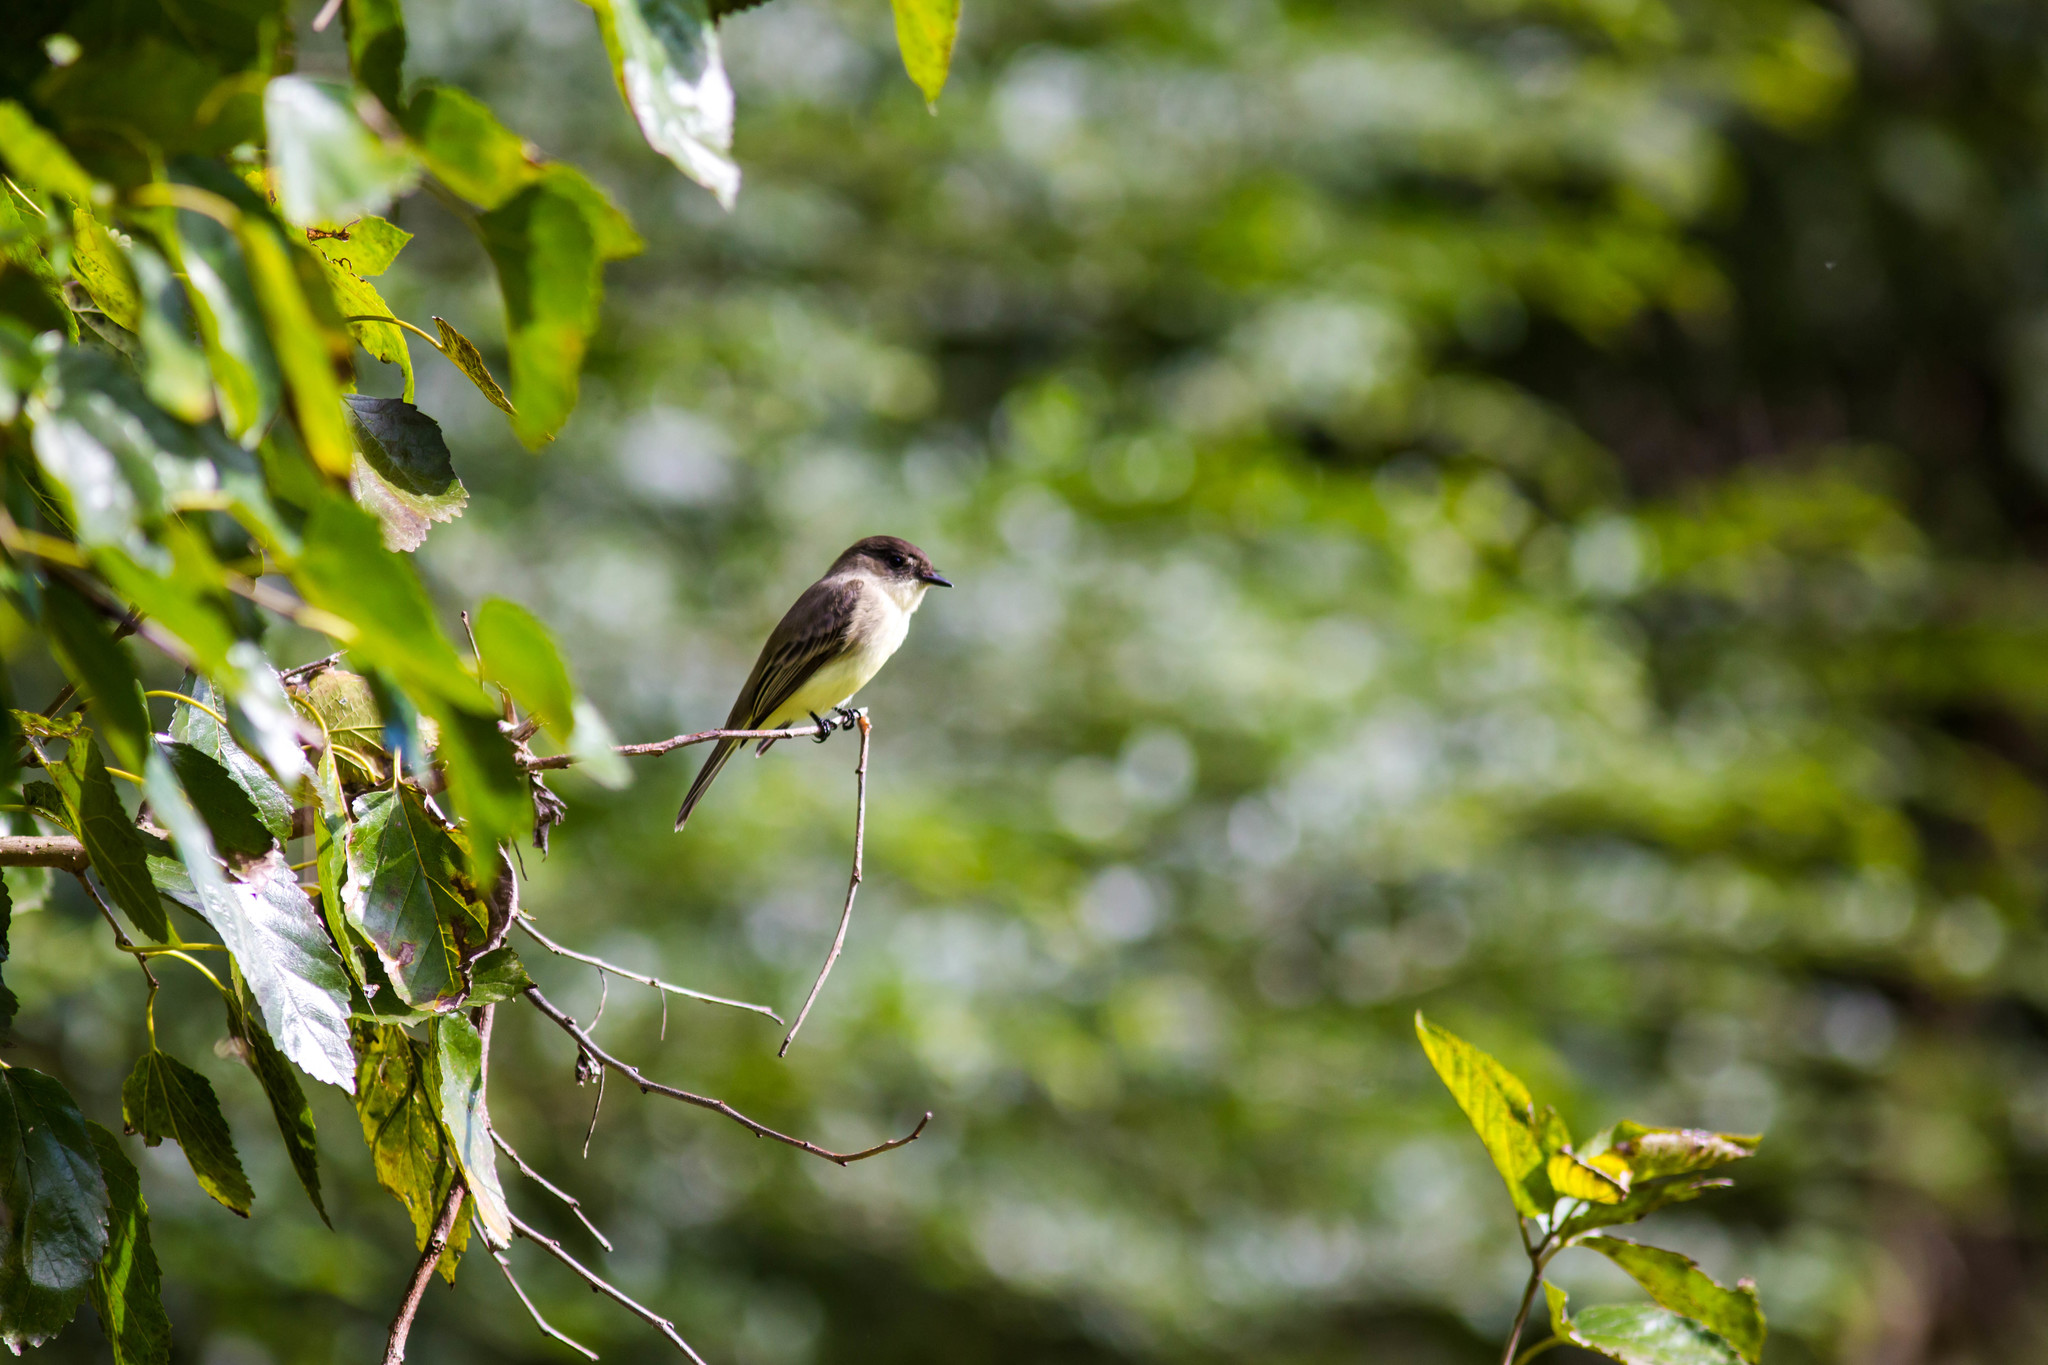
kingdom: Animalia
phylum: Chordata
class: Aves
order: Passeriformes
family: Tyrannidae
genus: Sayornis
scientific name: Sayornis phoebe
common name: Eastern phoebe
